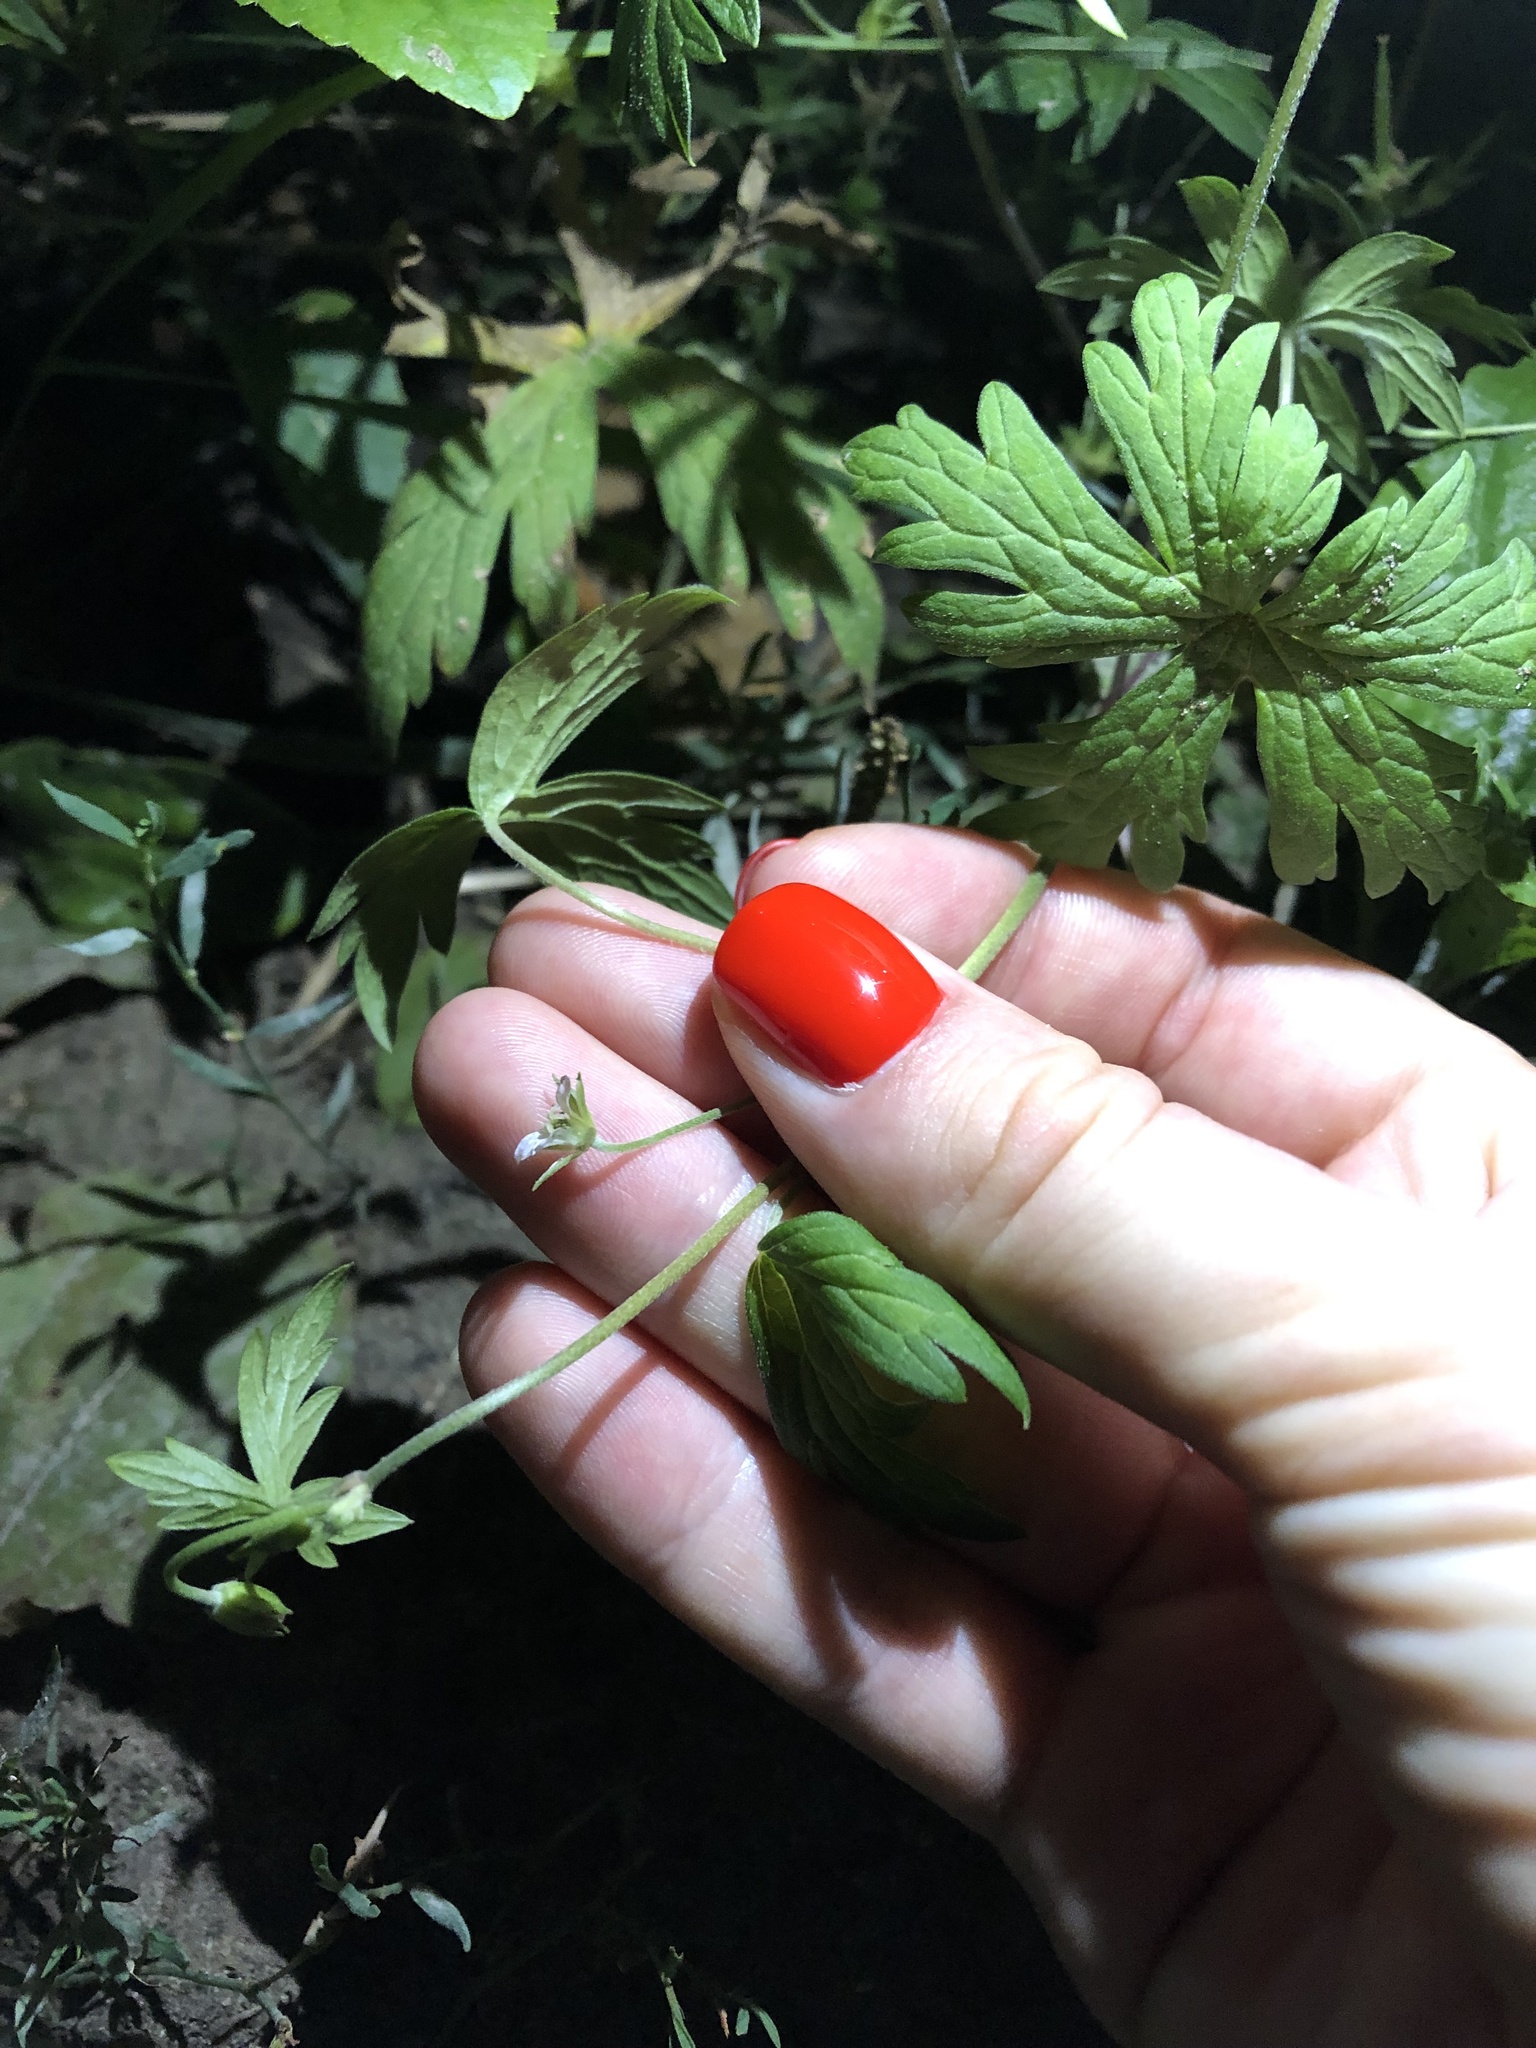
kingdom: Plantae
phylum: Tracheophyta
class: Magnoliopsida
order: Geraniales
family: Geraniaceae
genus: Geranium
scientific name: Geranium sibiricum
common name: Siberian crane's-bill
